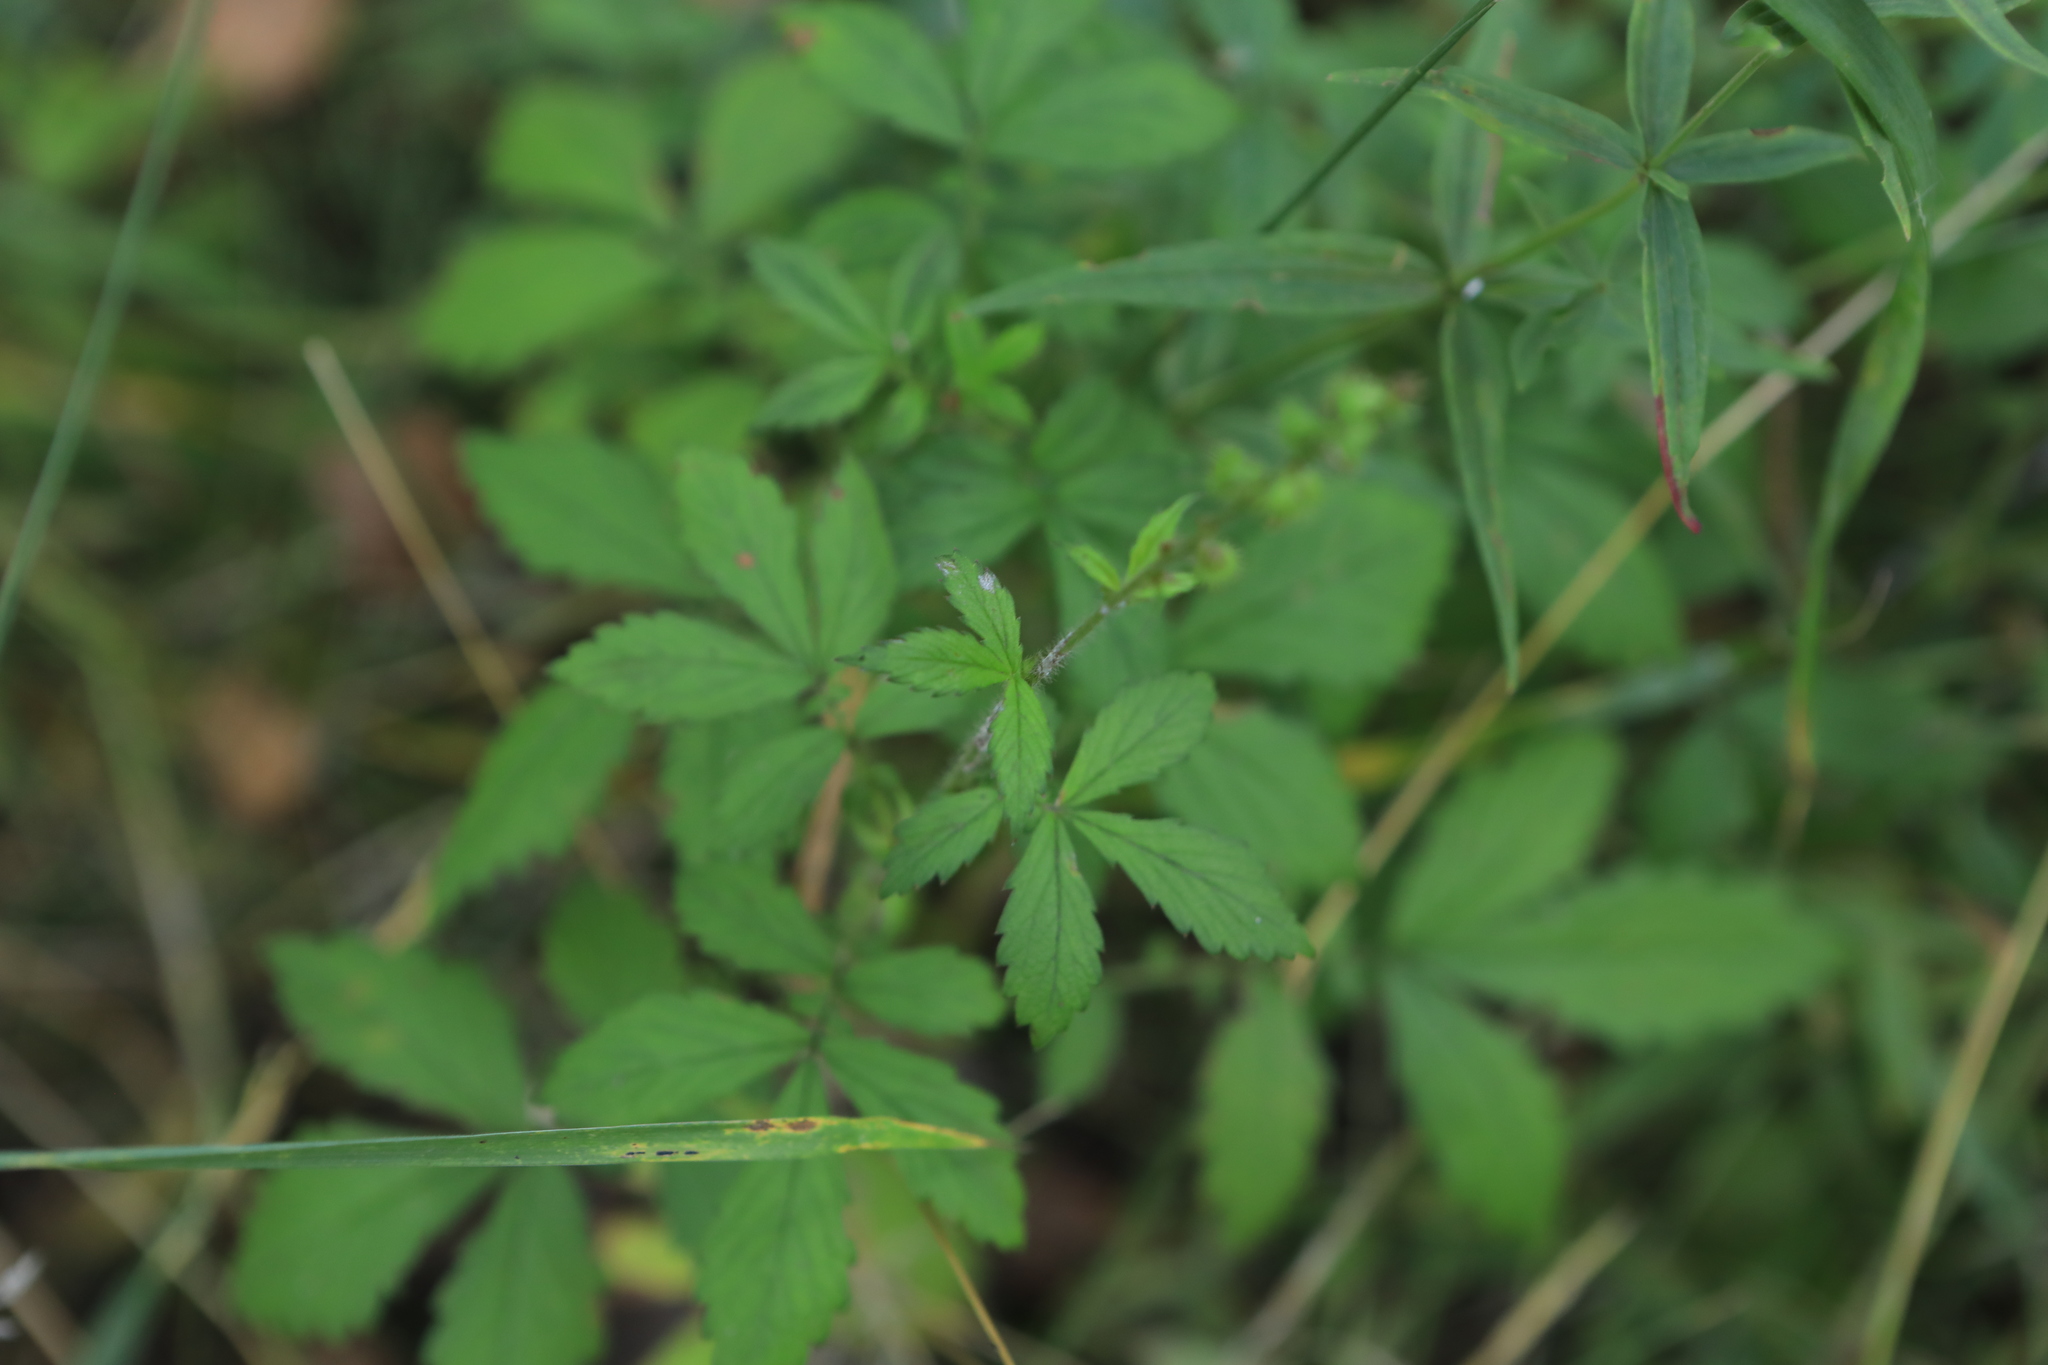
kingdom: Plantae
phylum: Tracheophyta
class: Magnoliopsida
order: Rosales
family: Rosaceae
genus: Agrimonia
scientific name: Agrimonia pilosa
